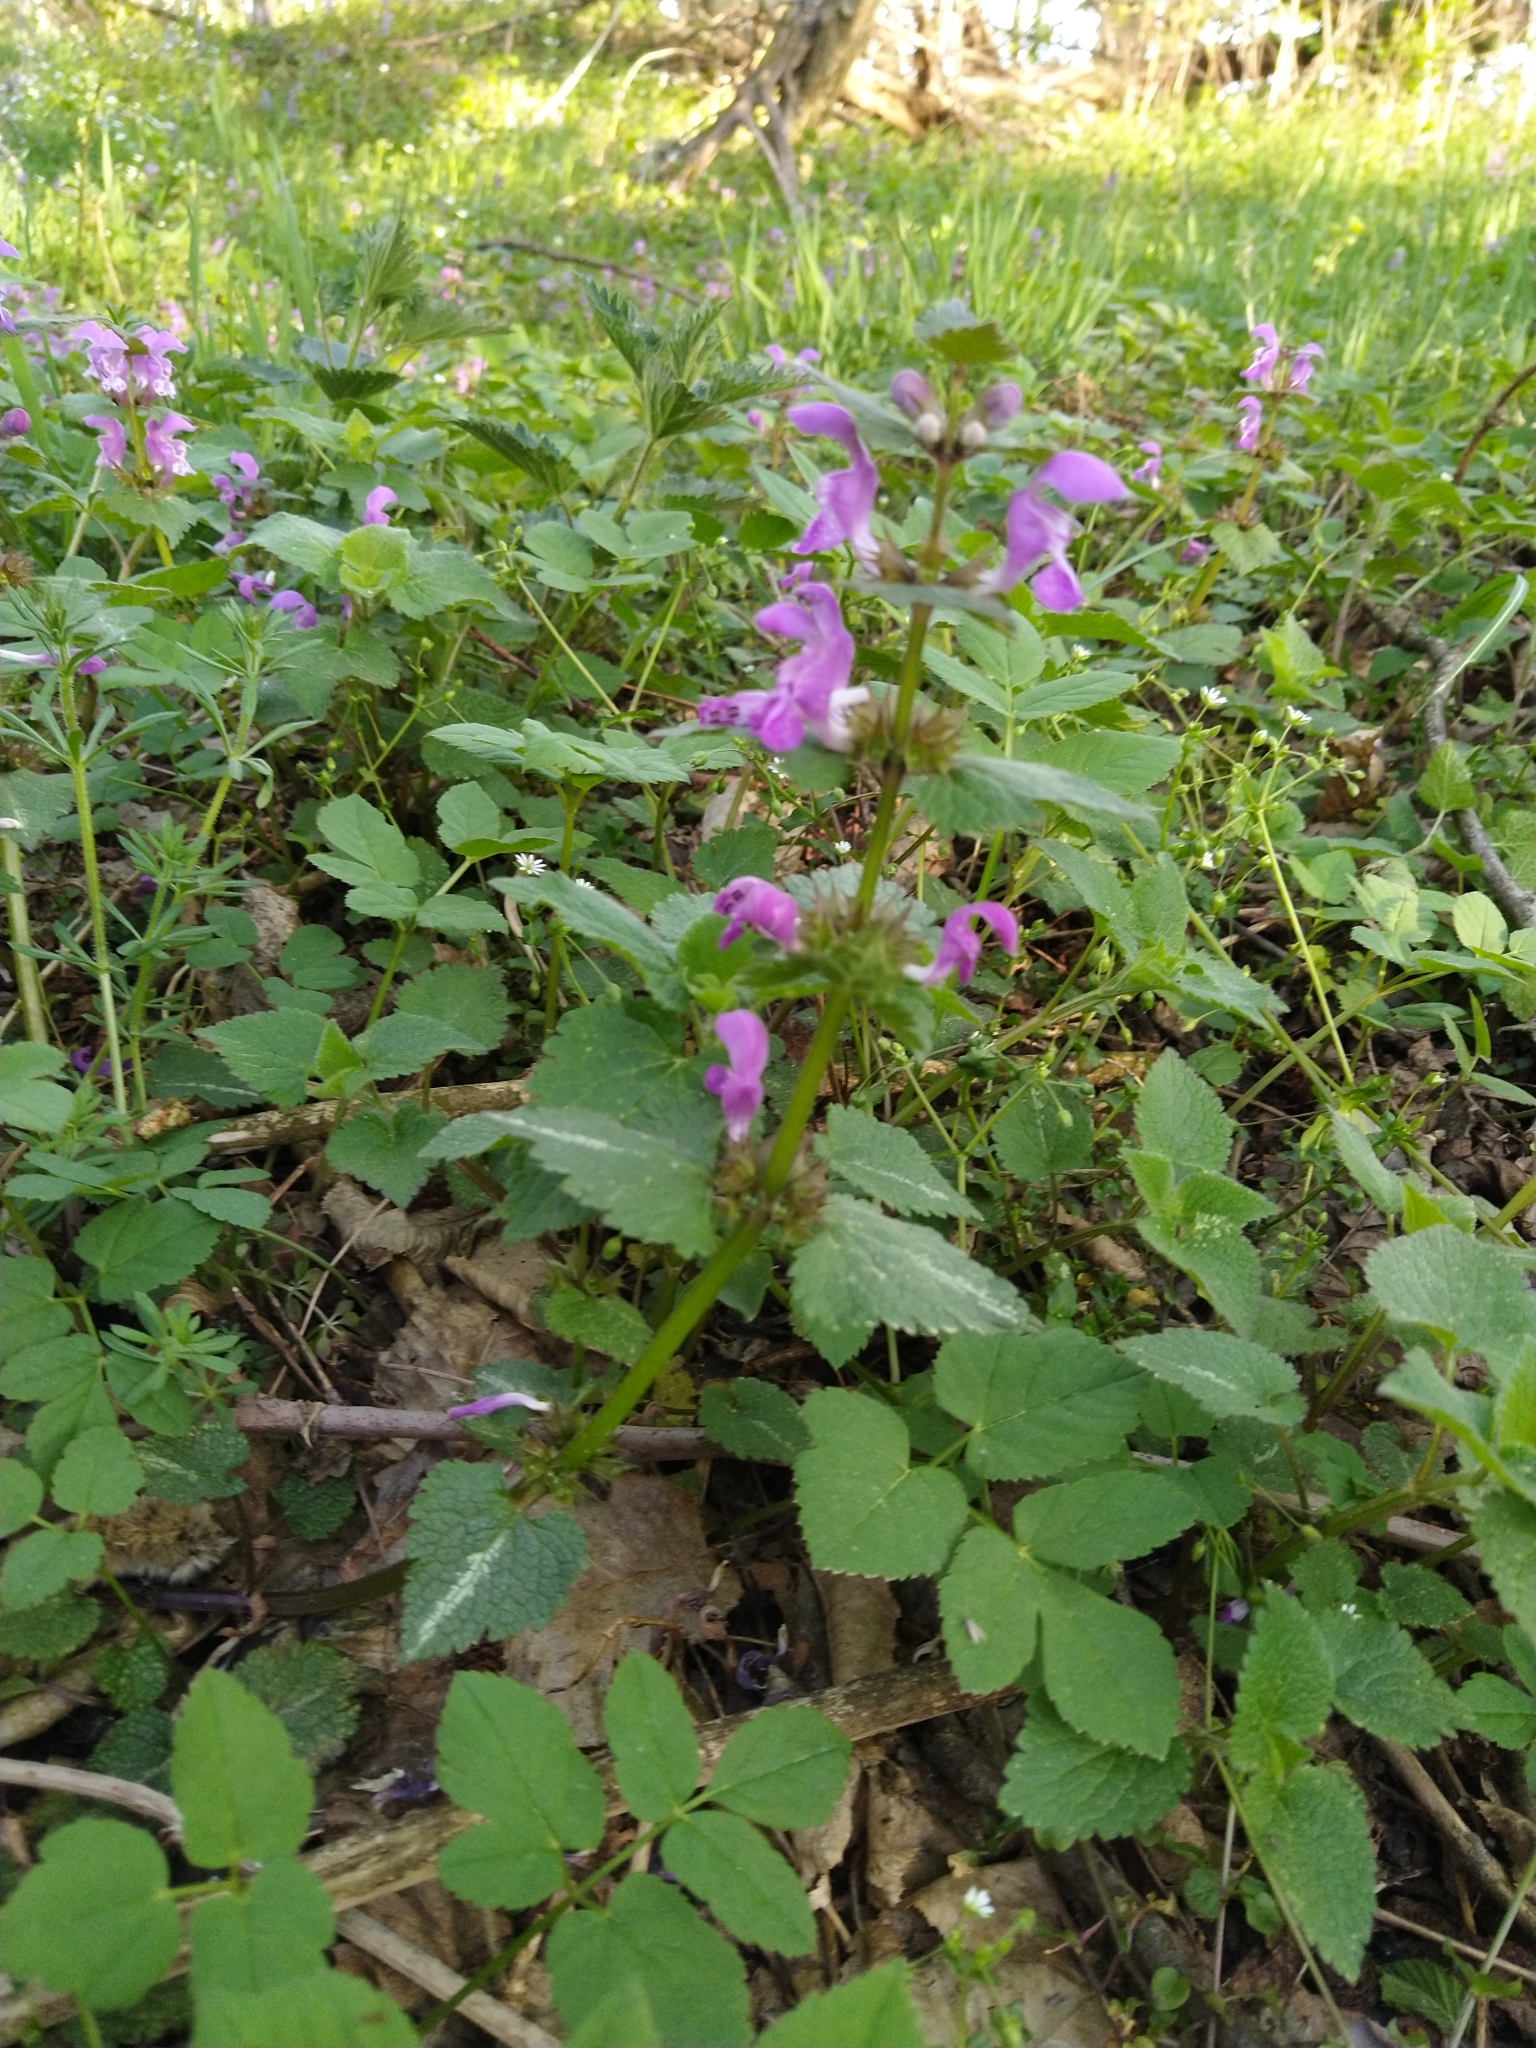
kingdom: Plantae
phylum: Tracheophyta
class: Magnoliopsida
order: Lamiales
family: Lamiaceae
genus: Lamium
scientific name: Lamium maculatum
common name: Spotted dead-nettle
